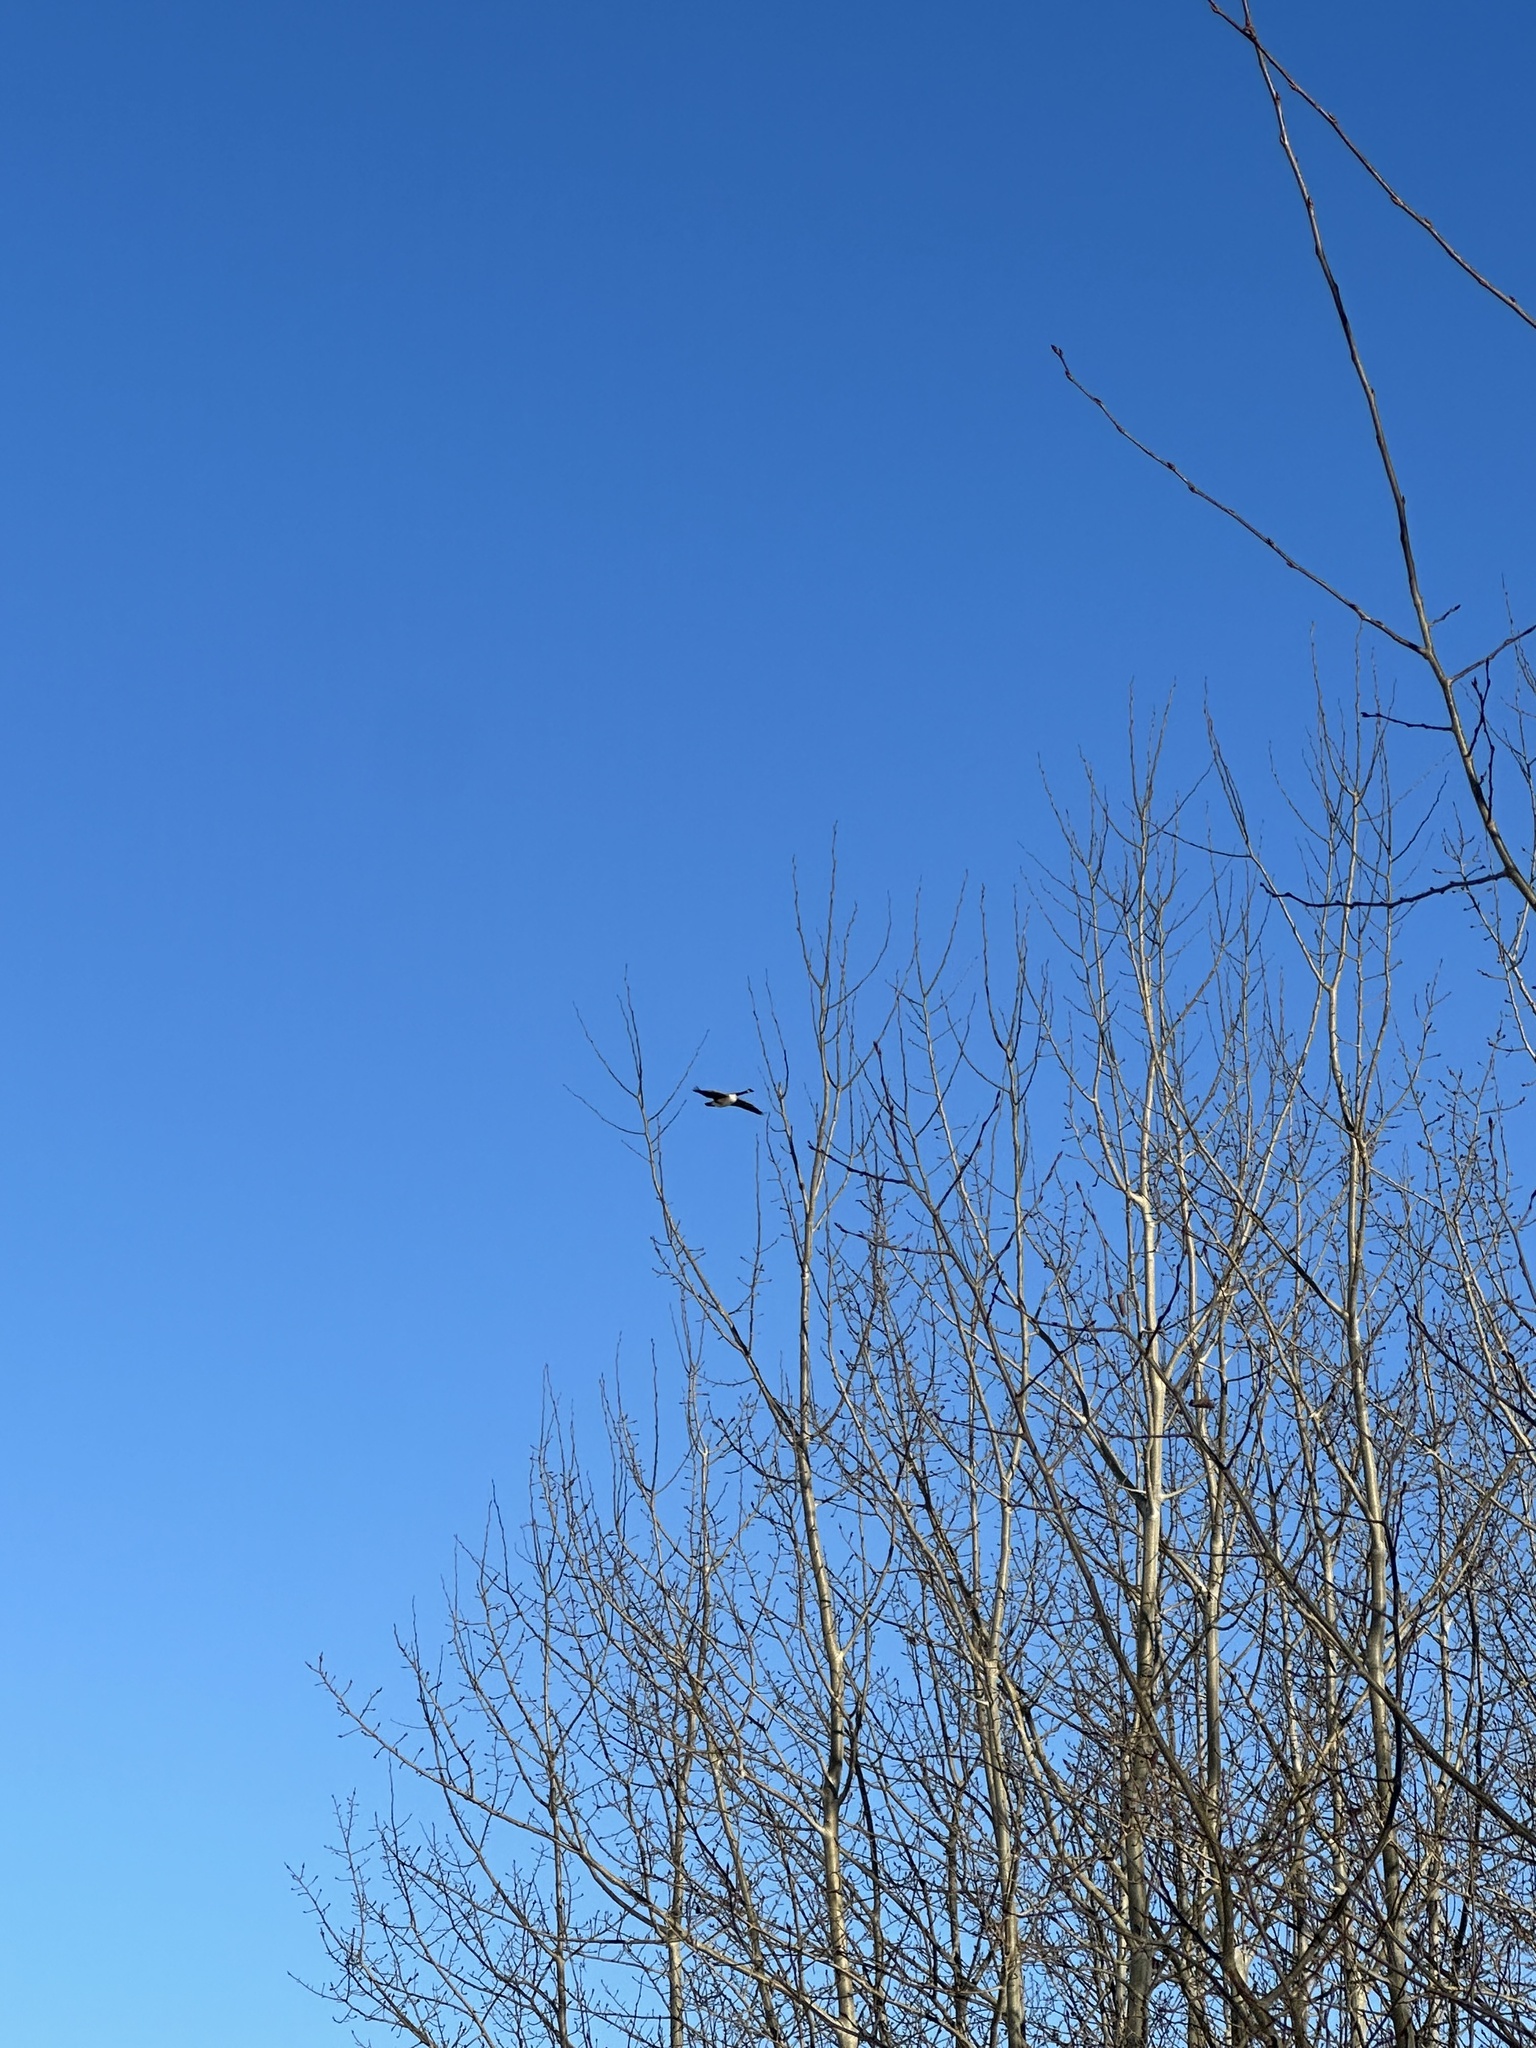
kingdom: Animalia
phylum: Chordata
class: Aves
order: Anseriformes
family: Anatidae
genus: Branta
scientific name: Branta canadensis
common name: Canada goose
